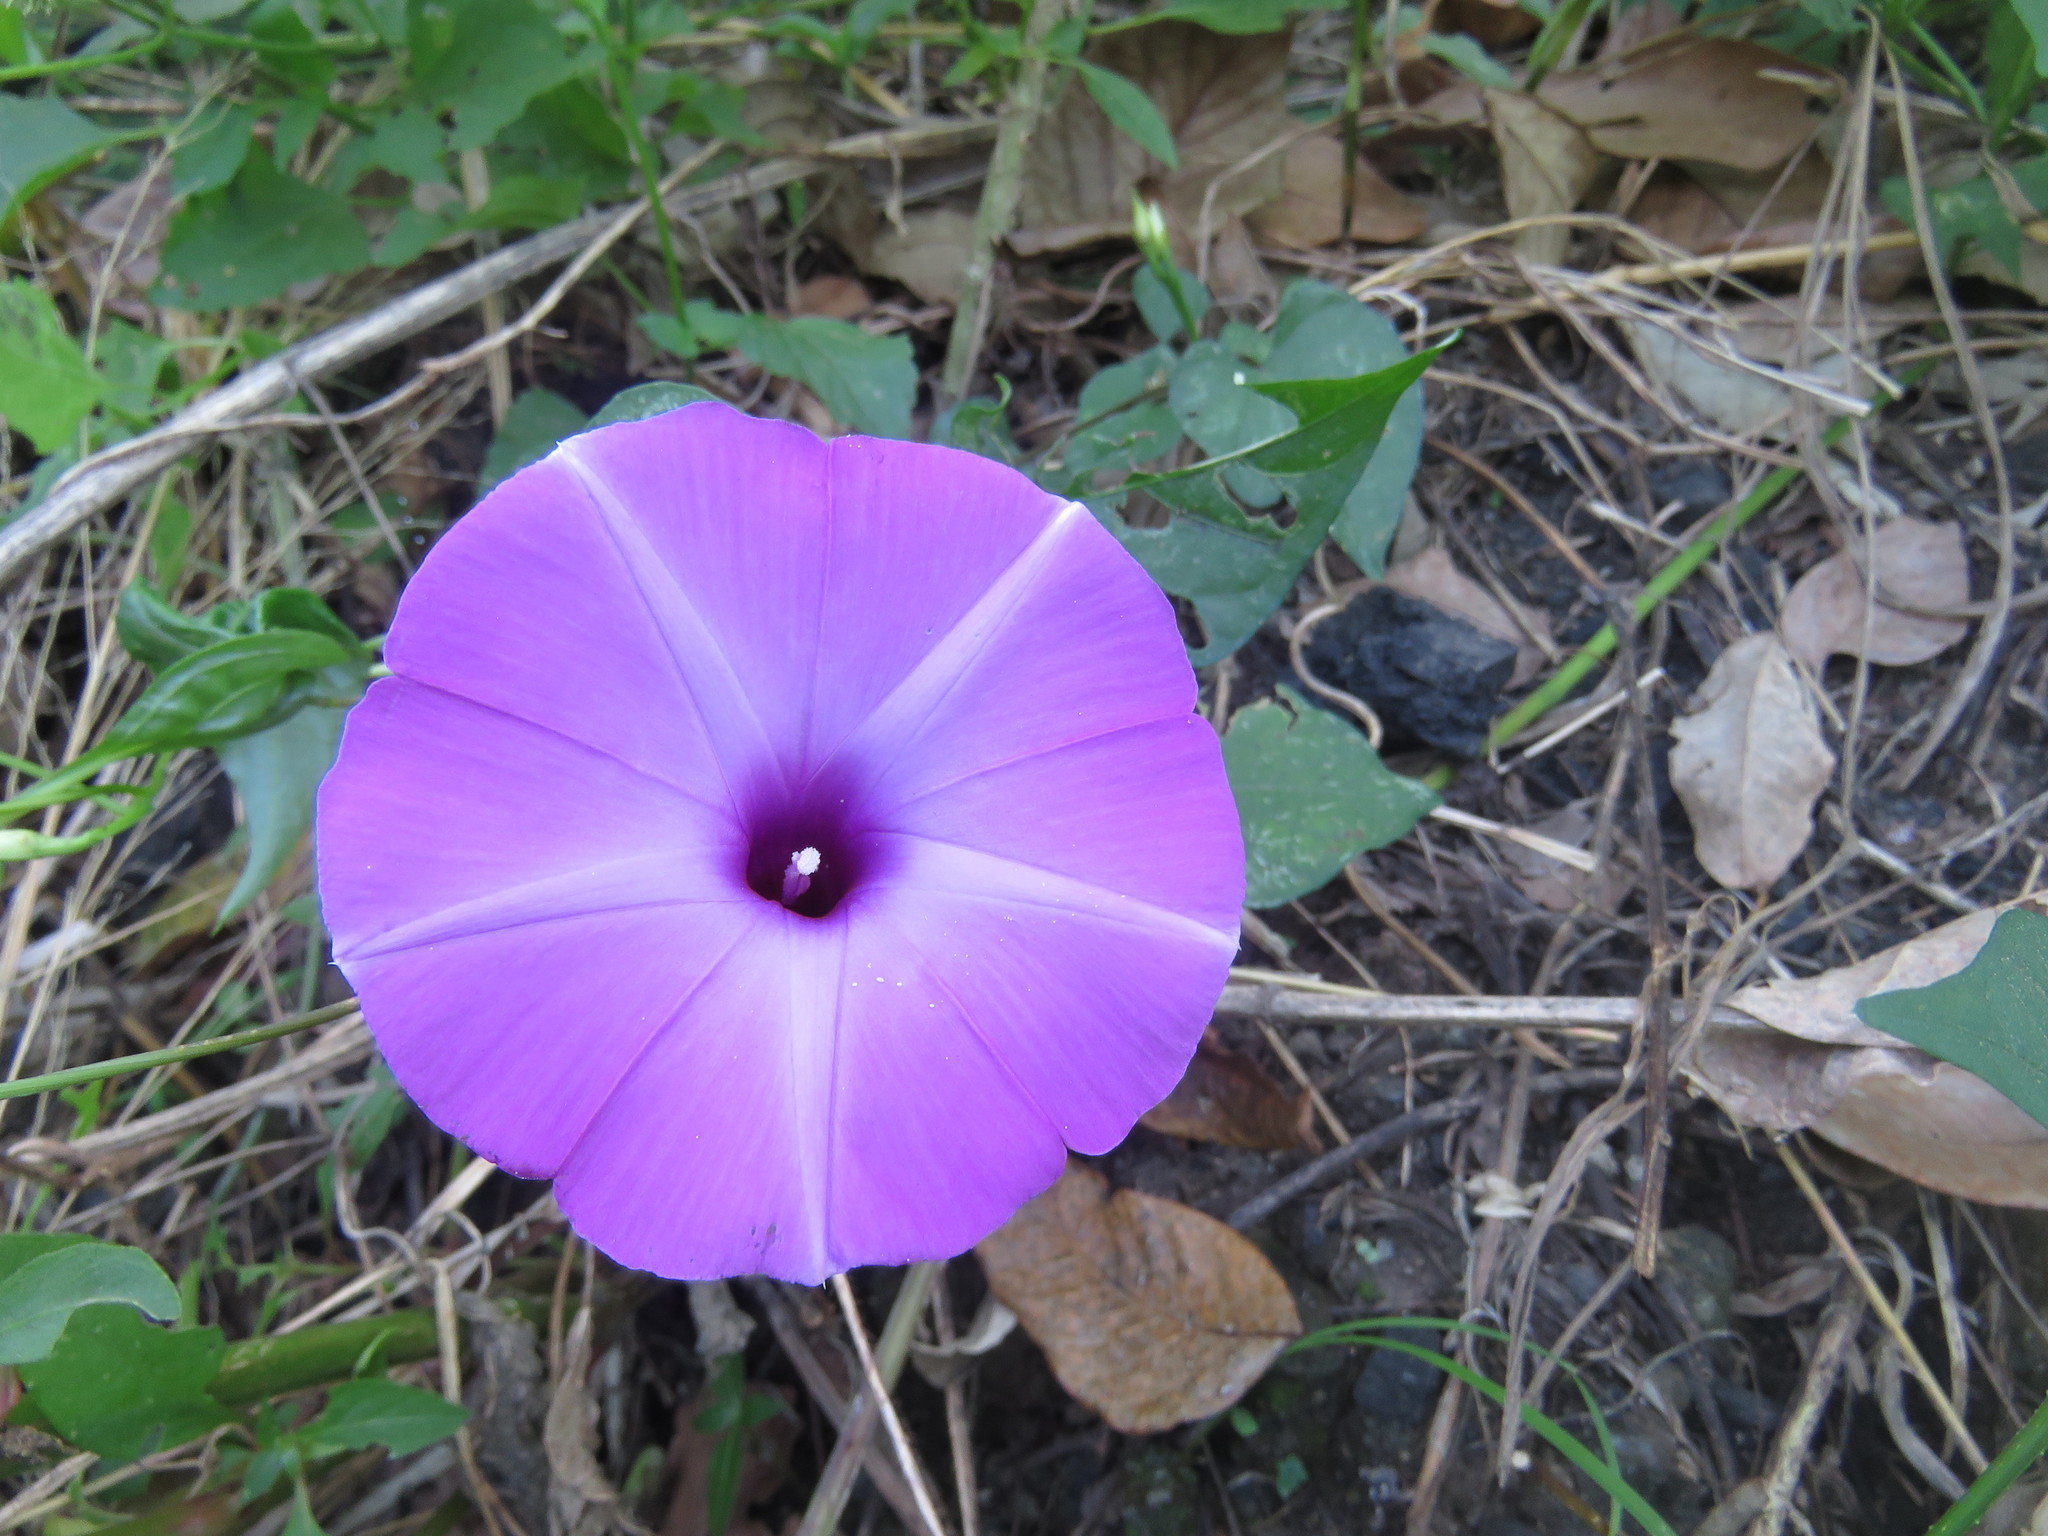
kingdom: Plantae
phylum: Tracheophyta
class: Magnoliopsida
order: Solanales
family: Convolvulaceae
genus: Ipomoea
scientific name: Ipomoea splendor-sylvae
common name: Morning glory
